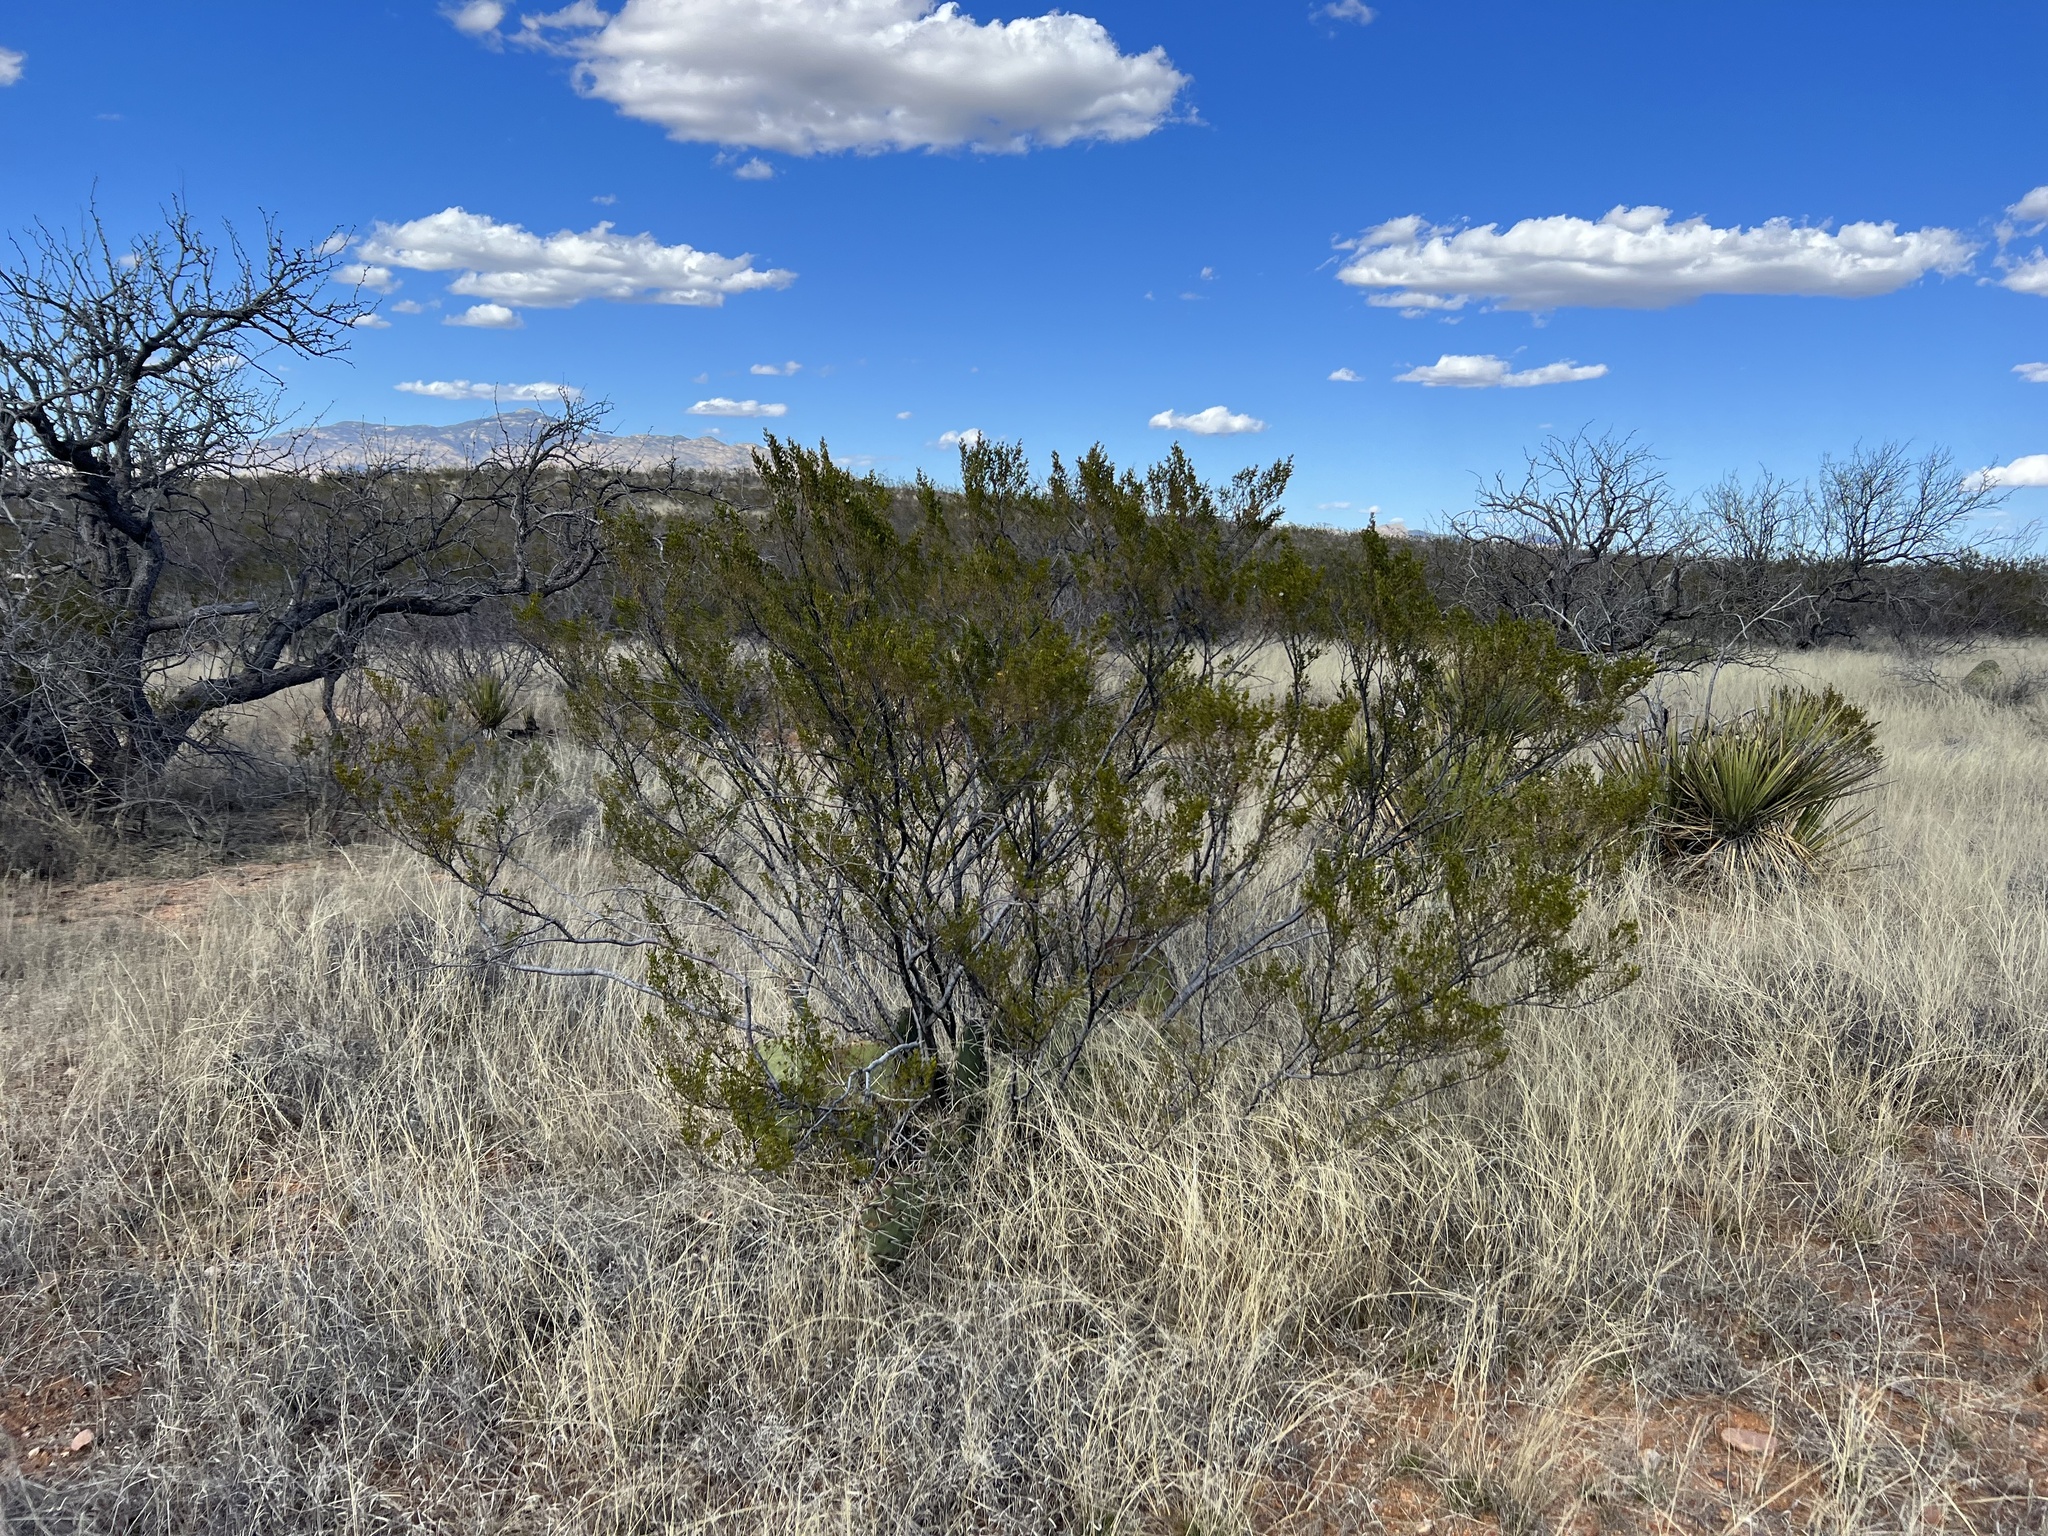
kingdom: Plantae
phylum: Tracheophyta
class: Magnoliopsida
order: Zygophyllales
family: Zygophyllaceae
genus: Larrea
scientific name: Larrea tridentata
